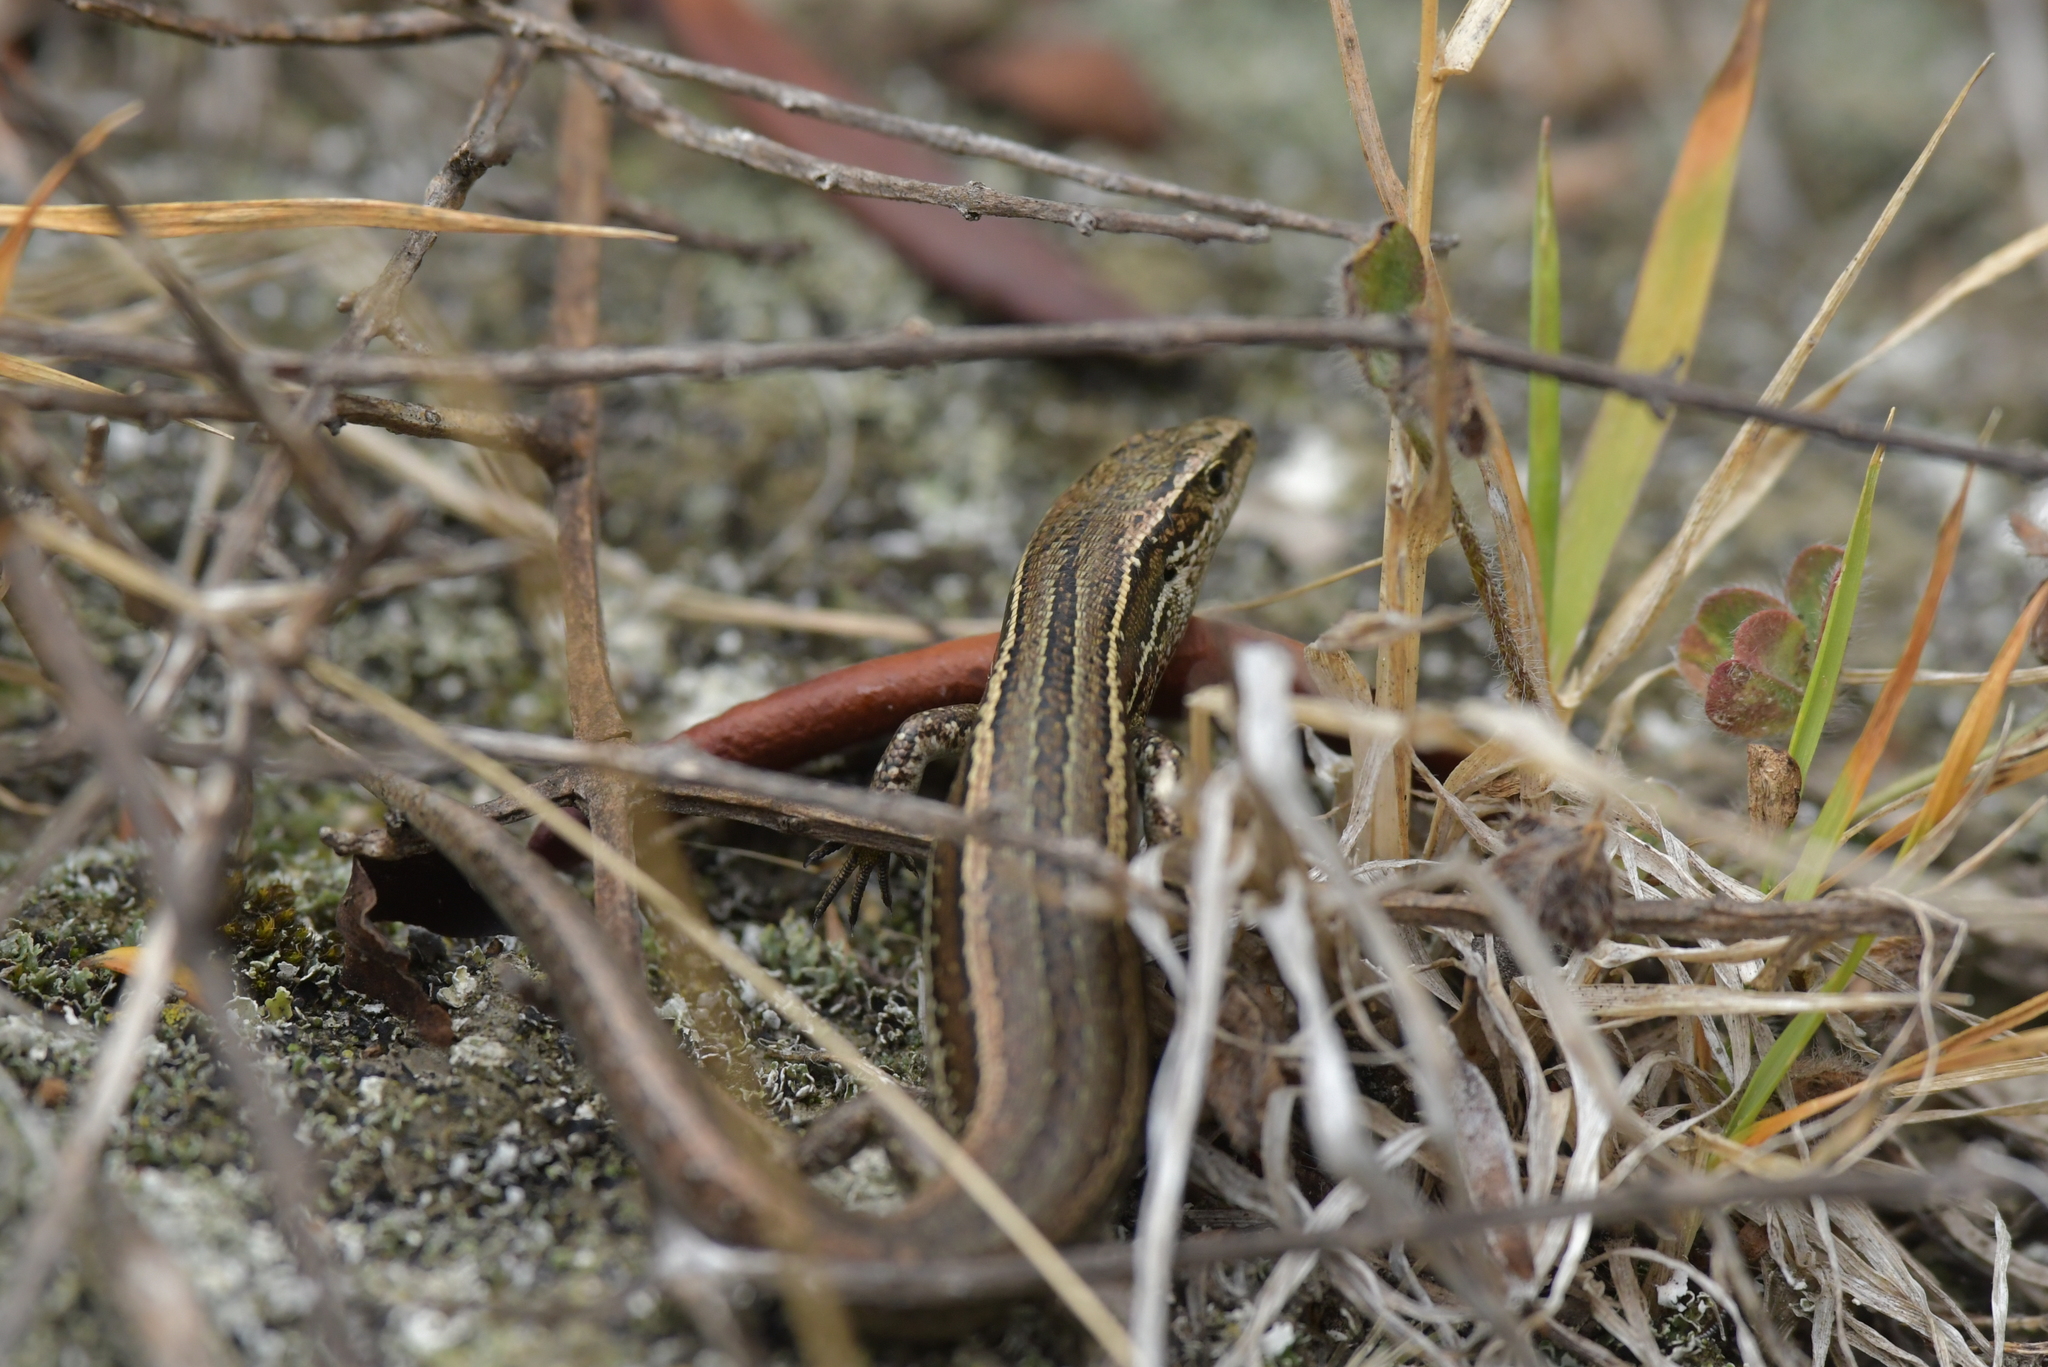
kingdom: Animalia
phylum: Chordata
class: Squamata
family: Scincidae
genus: Oligosoma
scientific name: Oligosoma polychroma
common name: Common new zealand skink
